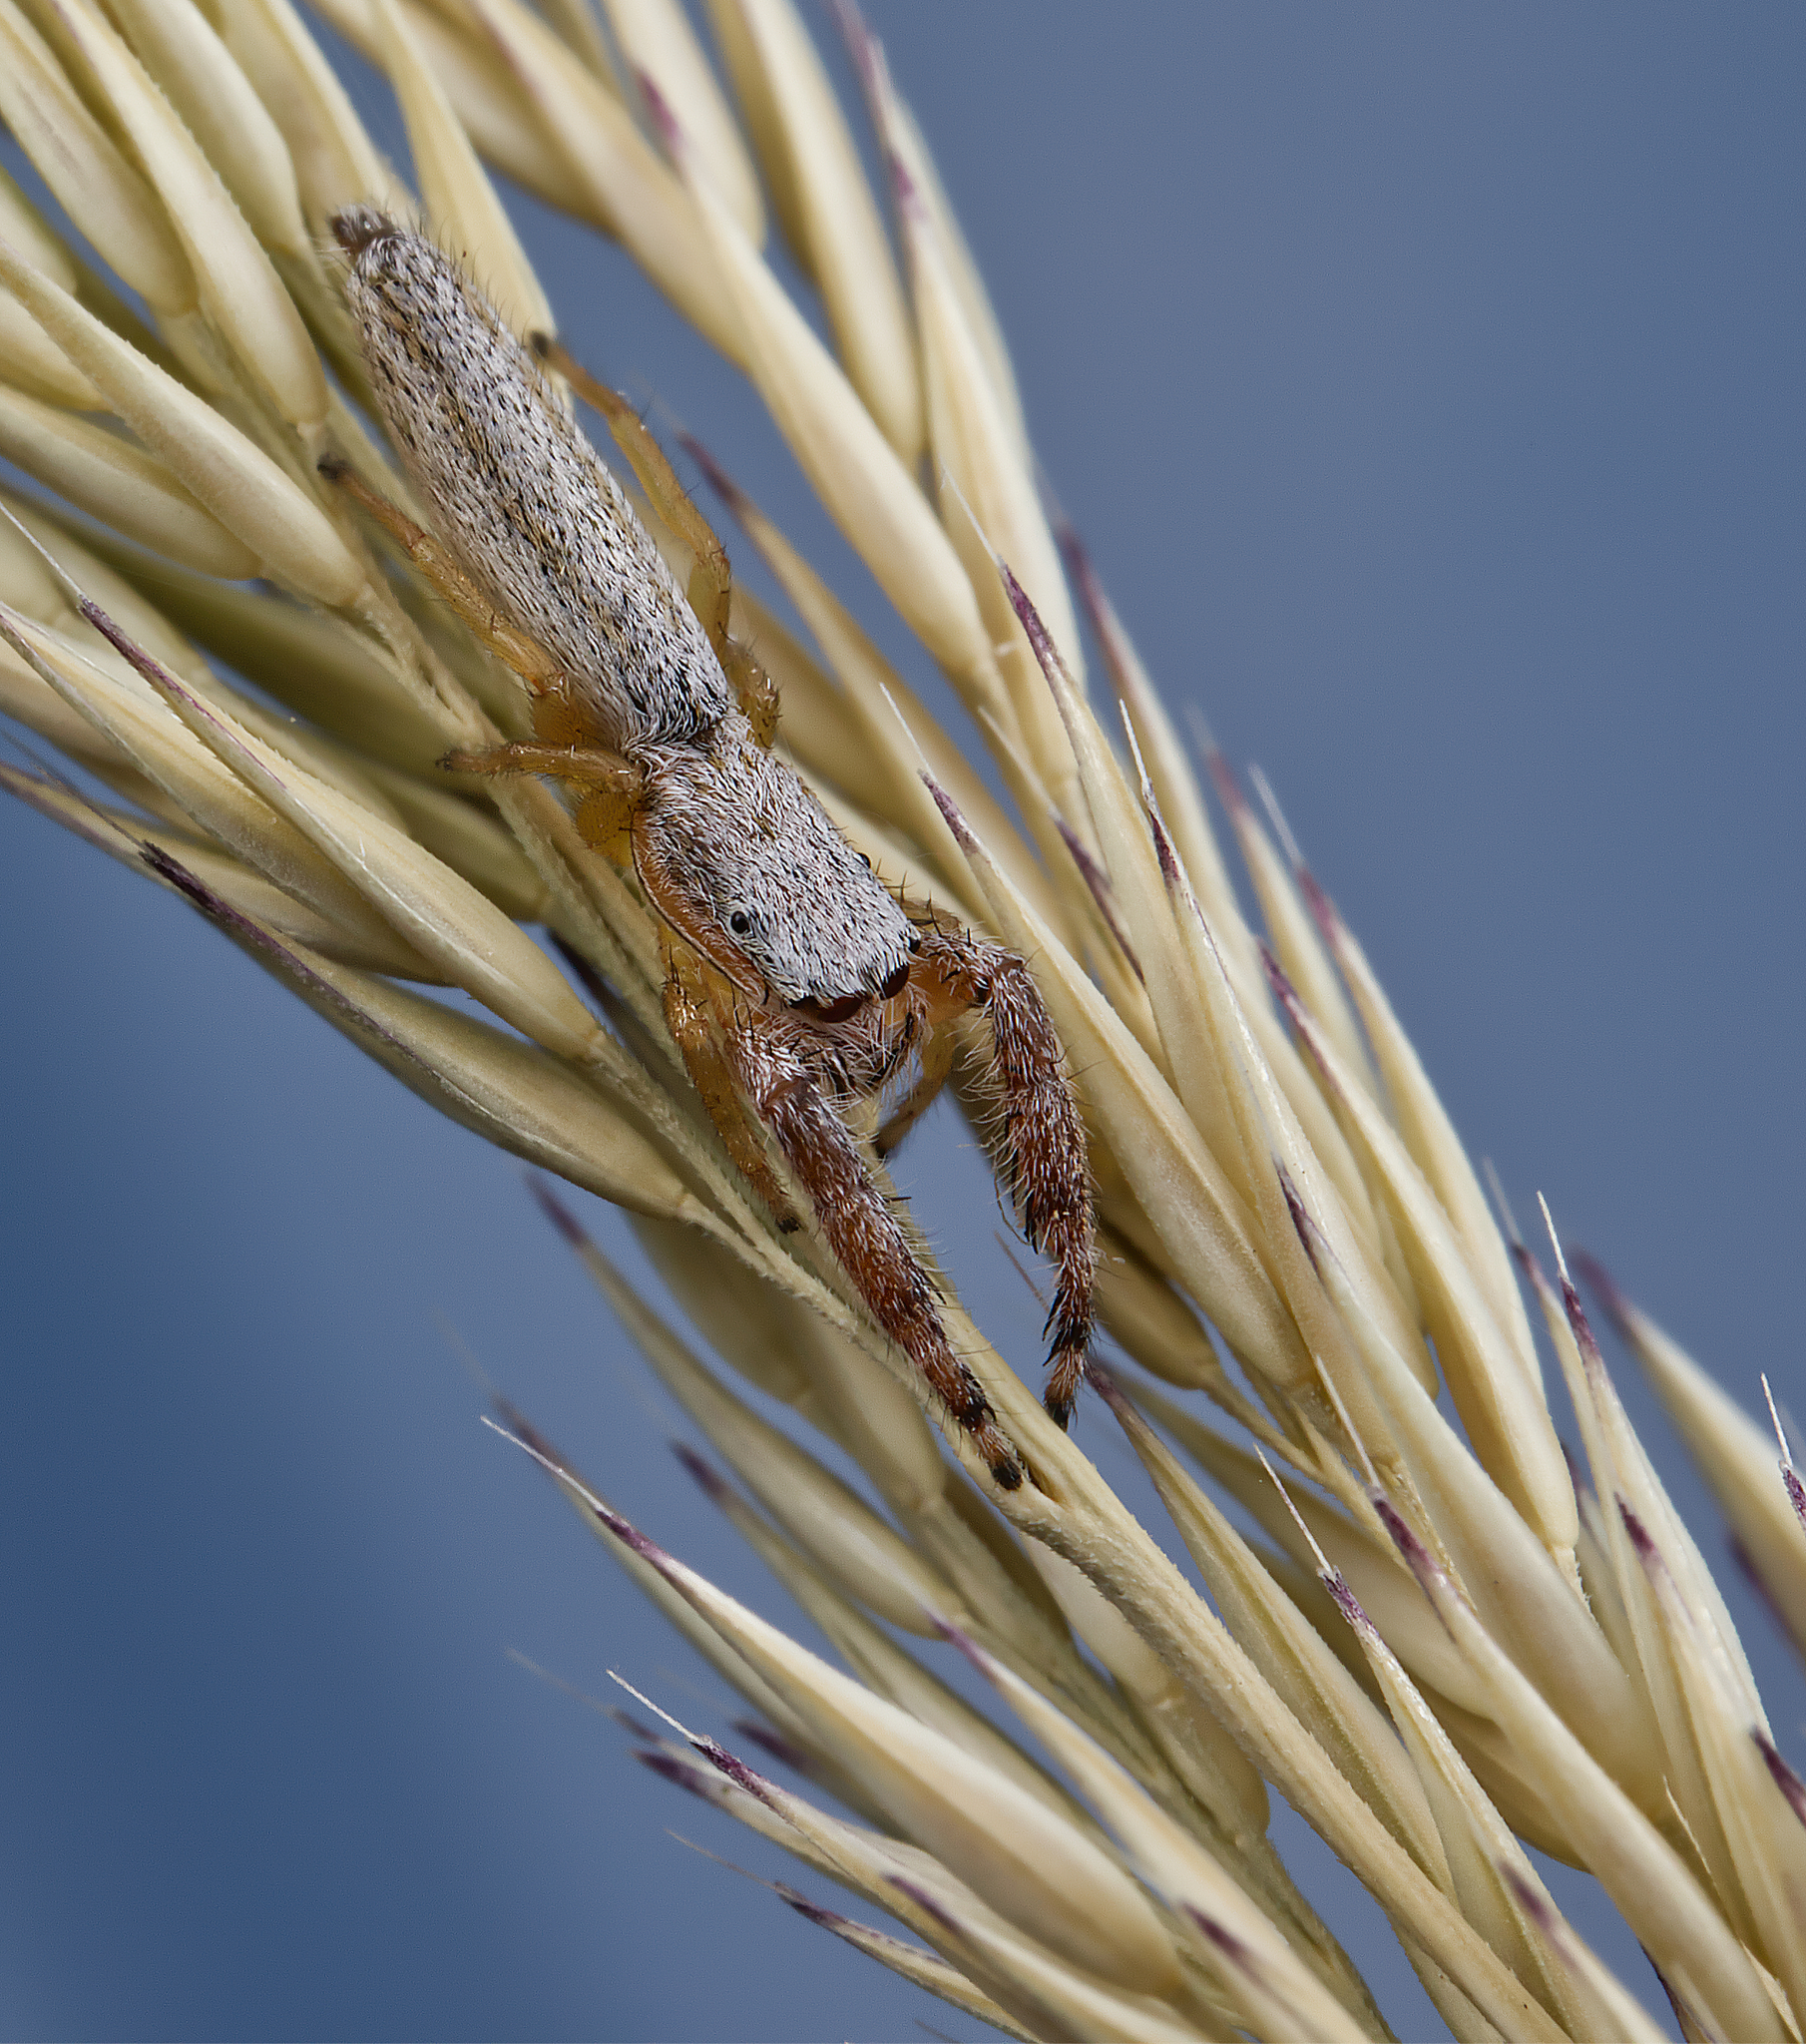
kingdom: Animalia
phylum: Arthropoda
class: Arachnida
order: Araneae
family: Salticidae
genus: Marpissa
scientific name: Marpissa pikei
